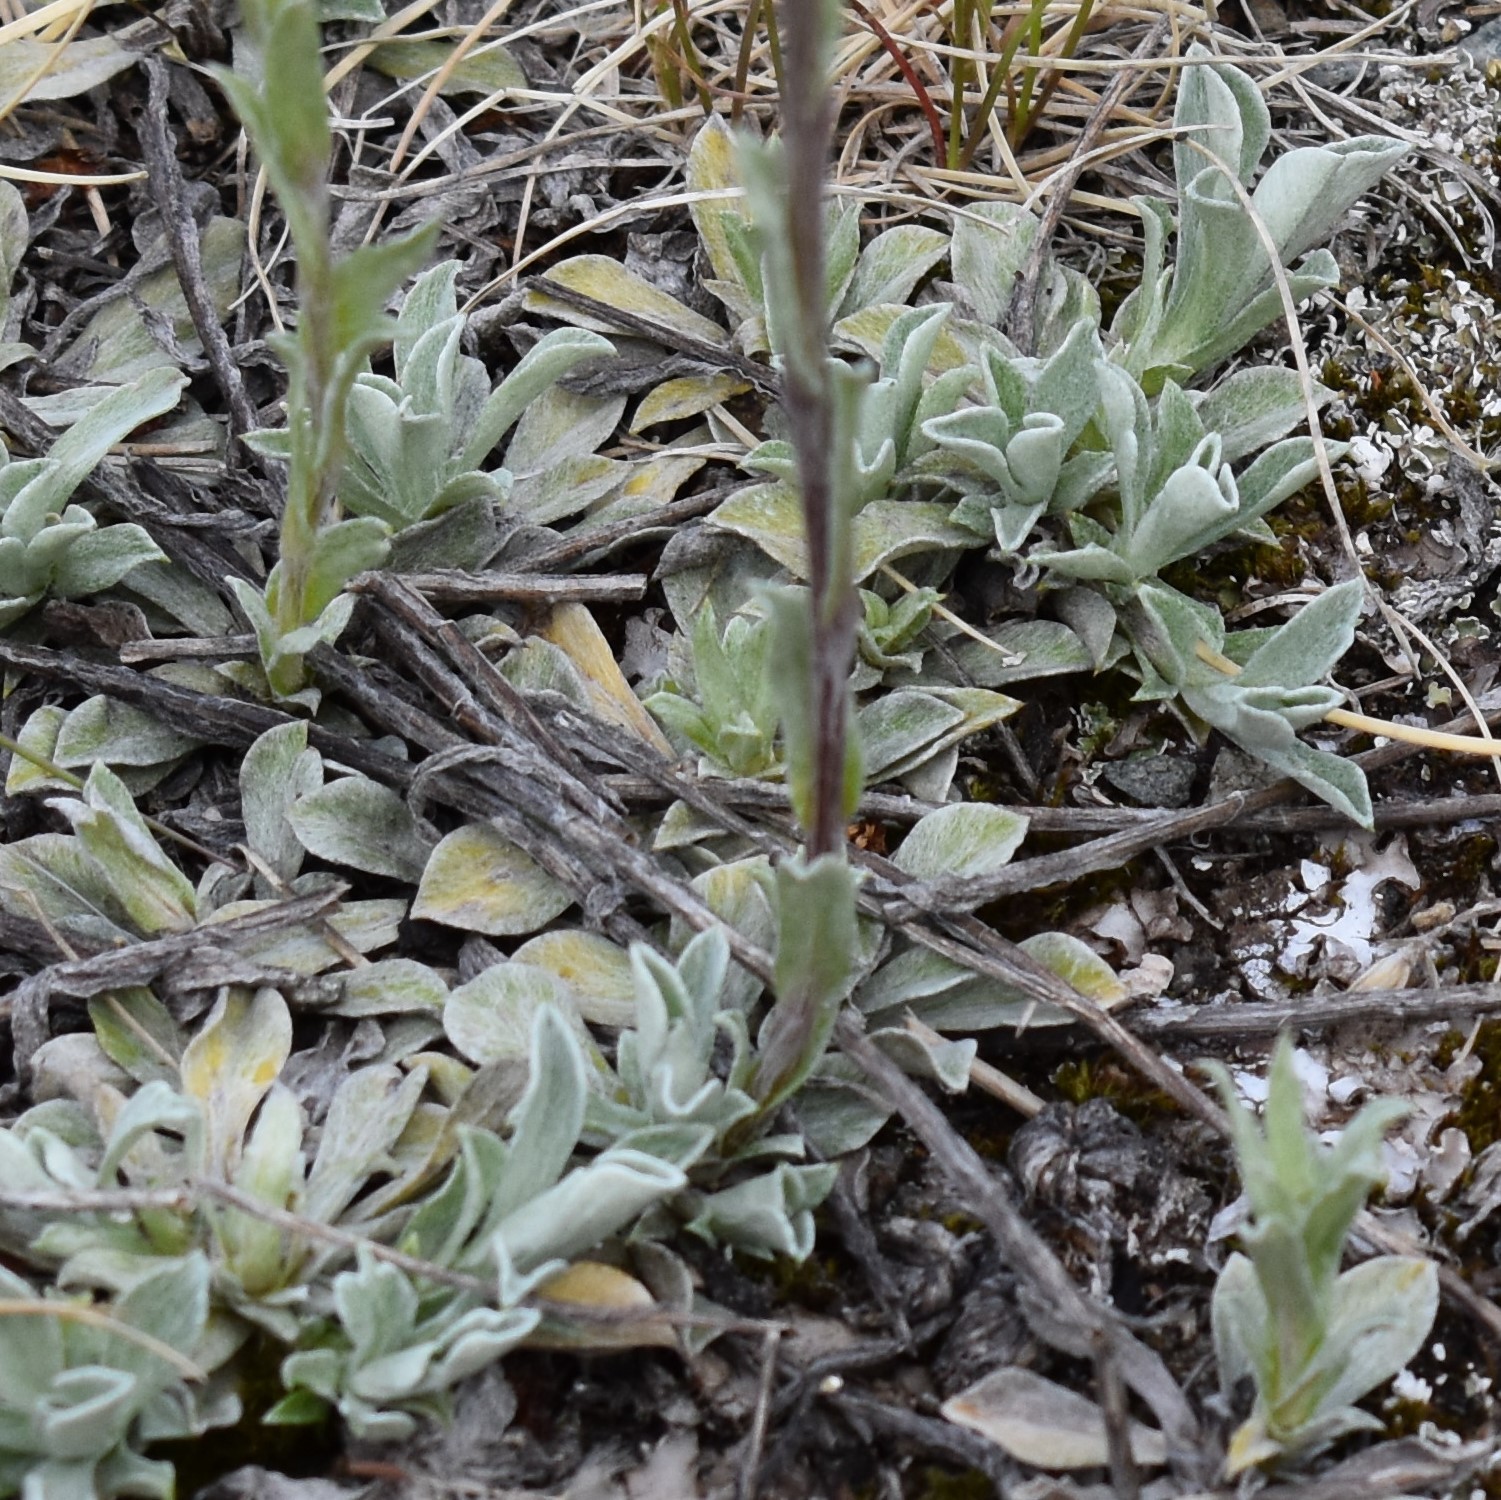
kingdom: Plantae
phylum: Tracheophyta
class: Magnoliopsida
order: Asterales
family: Asteraceae
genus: Antennaria
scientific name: Antennaria rosea
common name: Rosy pussytoes
